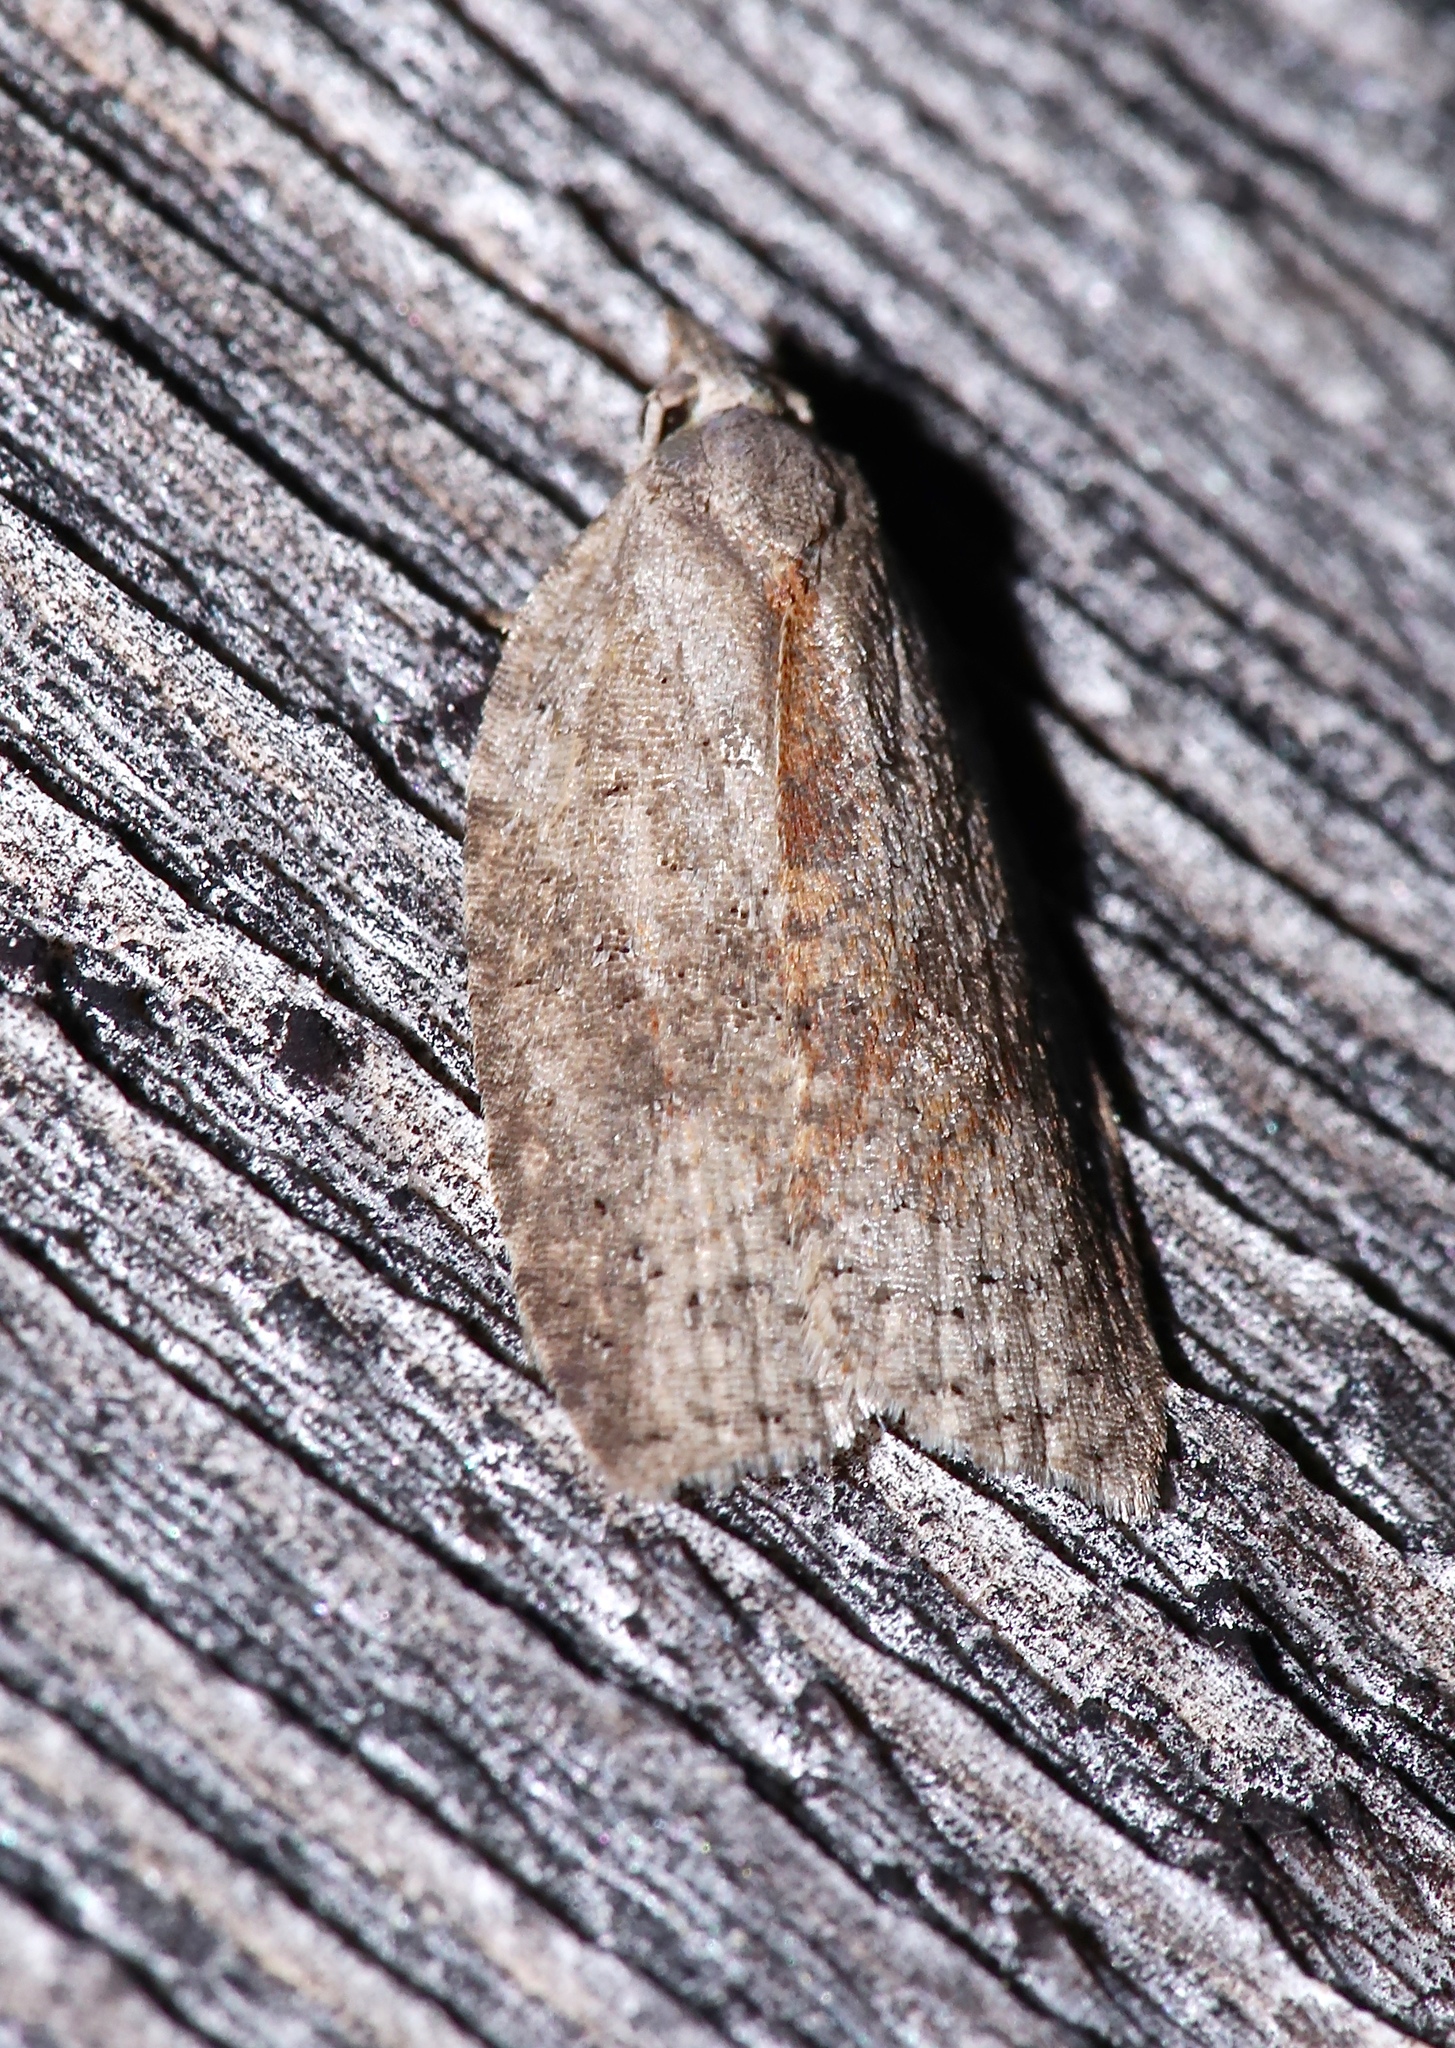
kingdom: Animalia
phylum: Arthropoda
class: Insecta
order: Lepidoptera
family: Tortricidae
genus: Amorbia
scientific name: Amorbia humerosana
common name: White-lined leafroller moth
